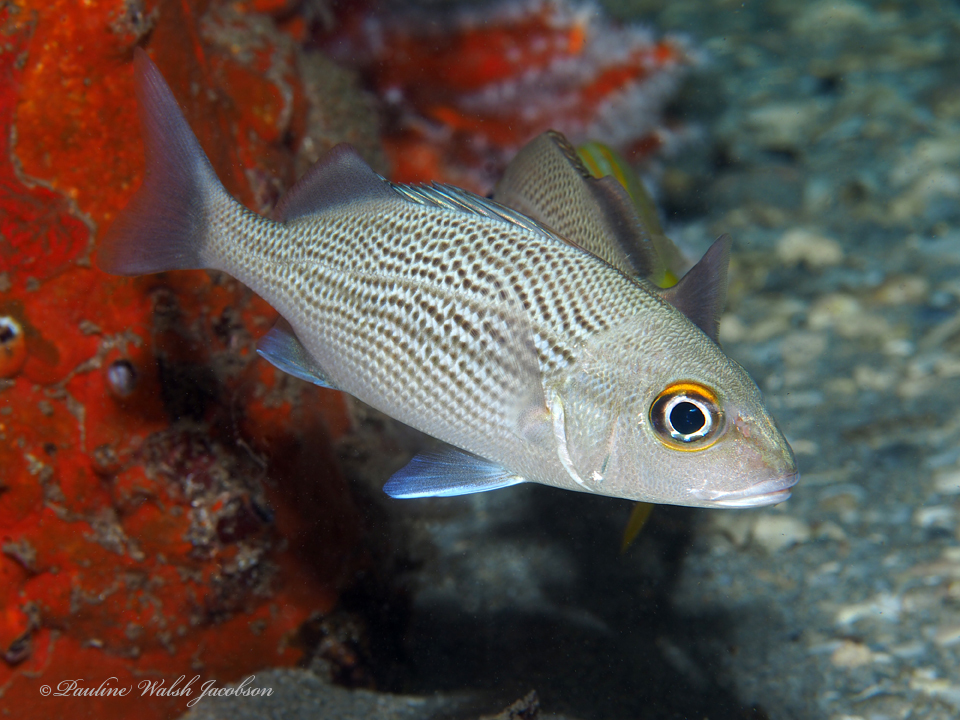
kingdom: Animalia
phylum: Chordata
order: Perciformes
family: Haemulidae
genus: Haemulon
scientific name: Haemulon parra
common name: Sailor's choice
